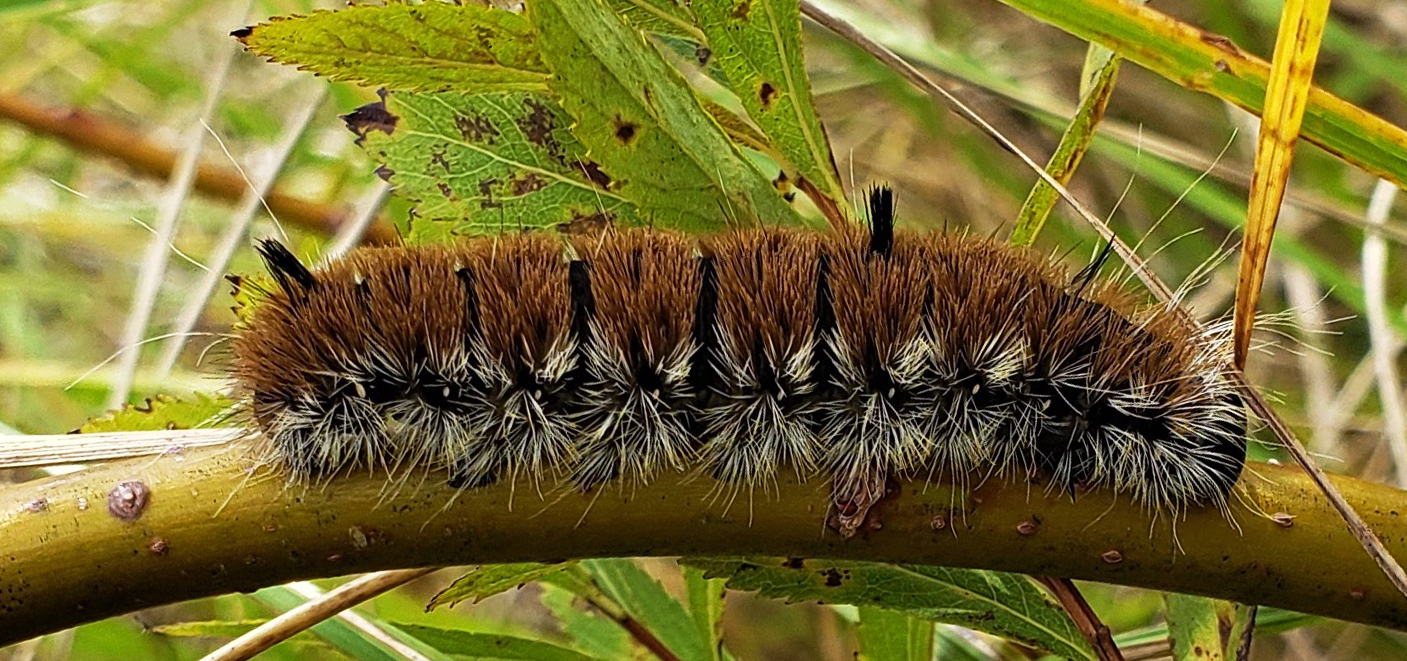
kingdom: Animalia
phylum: Arthropoda
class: Insecta
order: Lepidoptera
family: Noctuidae
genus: Acronicta
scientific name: Acronicta insita
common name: Large gray dagger
